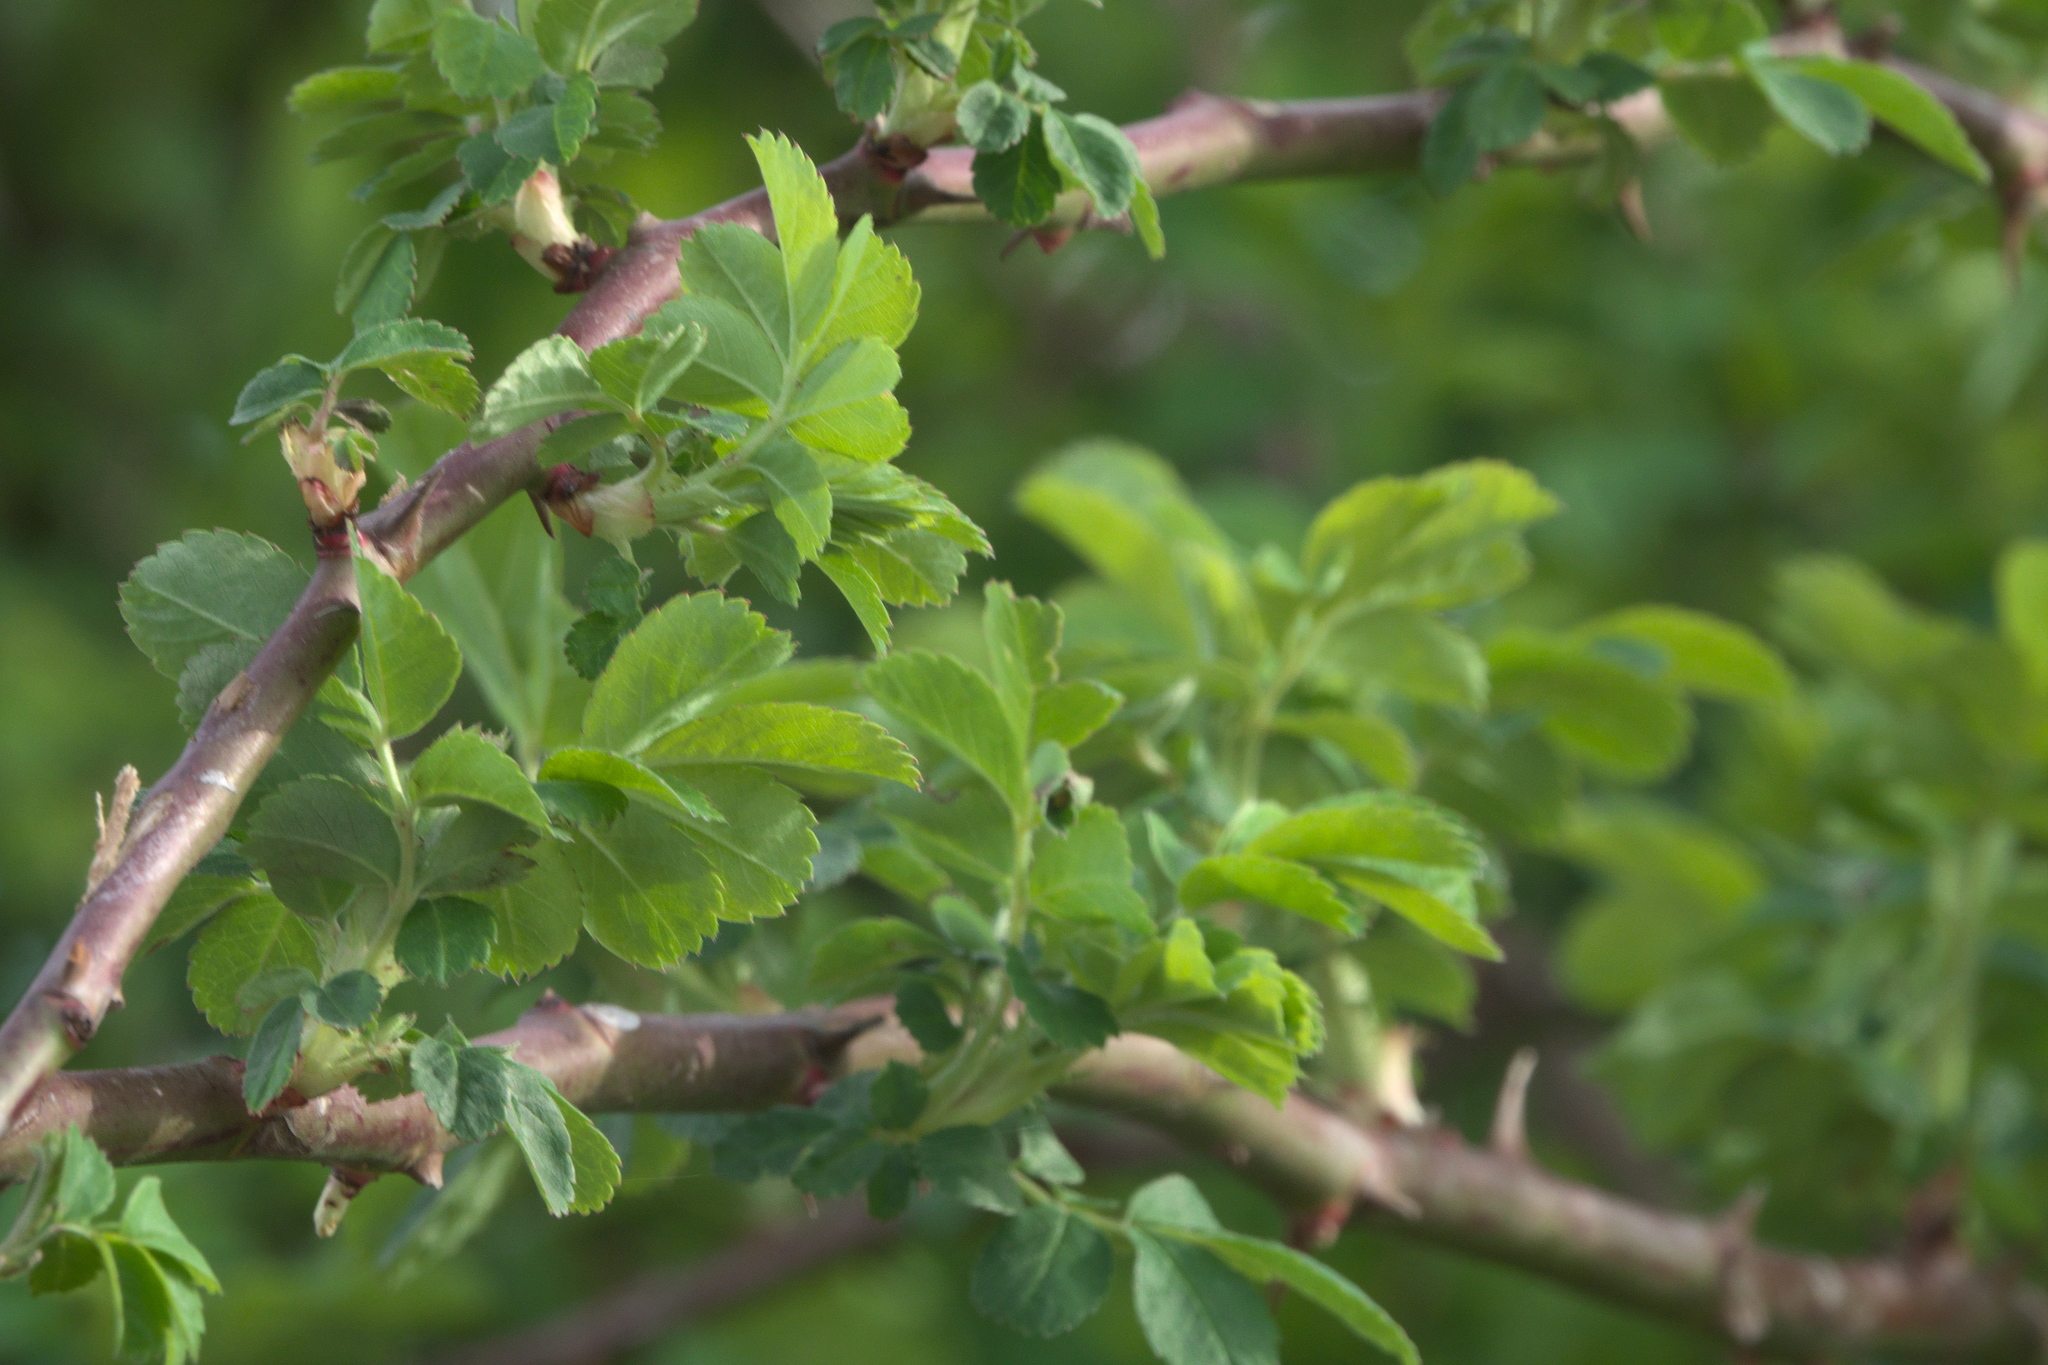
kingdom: Plantae
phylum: Tracheophyta
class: Magnoliopsida
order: Rosales
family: Rosaceae
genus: Rosa
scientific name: Rosa multiflora
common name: Multiflora rose
